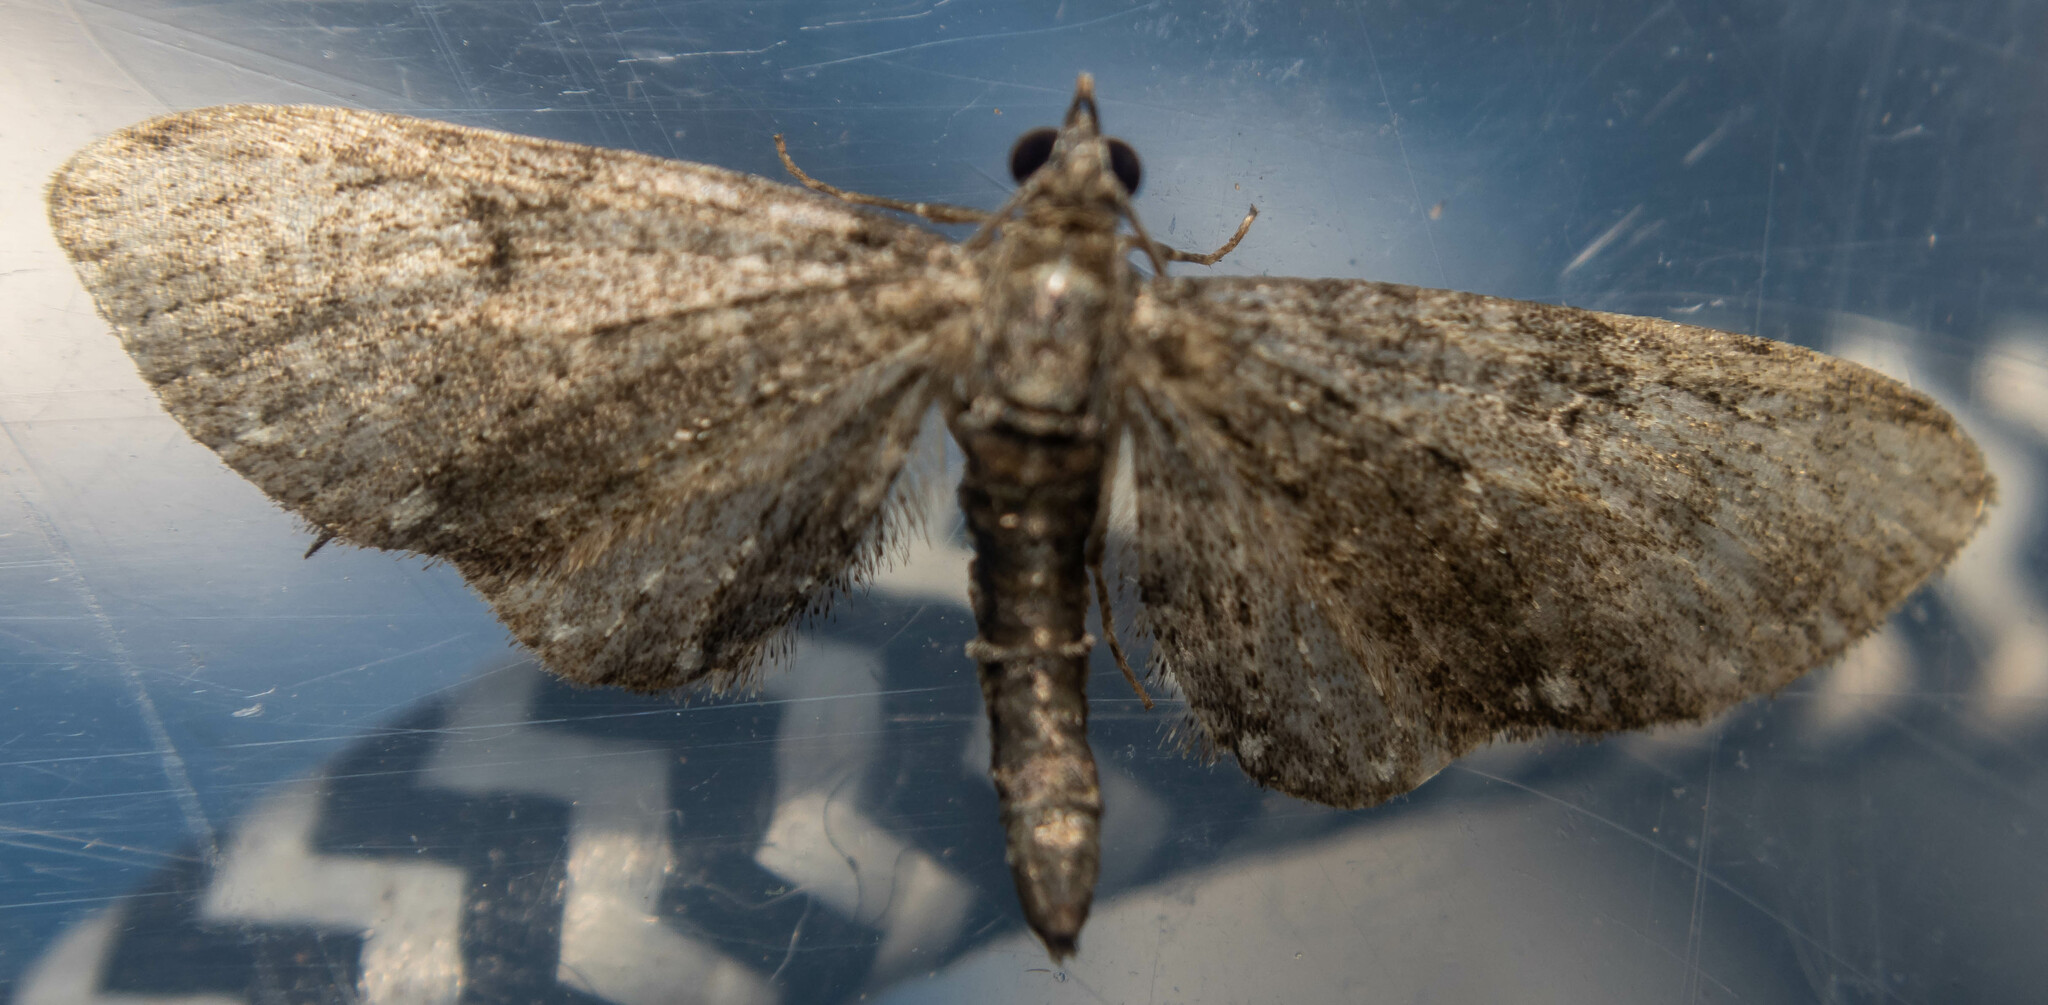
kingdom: Animalia
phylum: Arthropoda
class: Insecta
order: Lepidoptera
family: Geometridae
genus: Eupithecia
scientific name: Eupithecia vulgata
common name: Common pug
